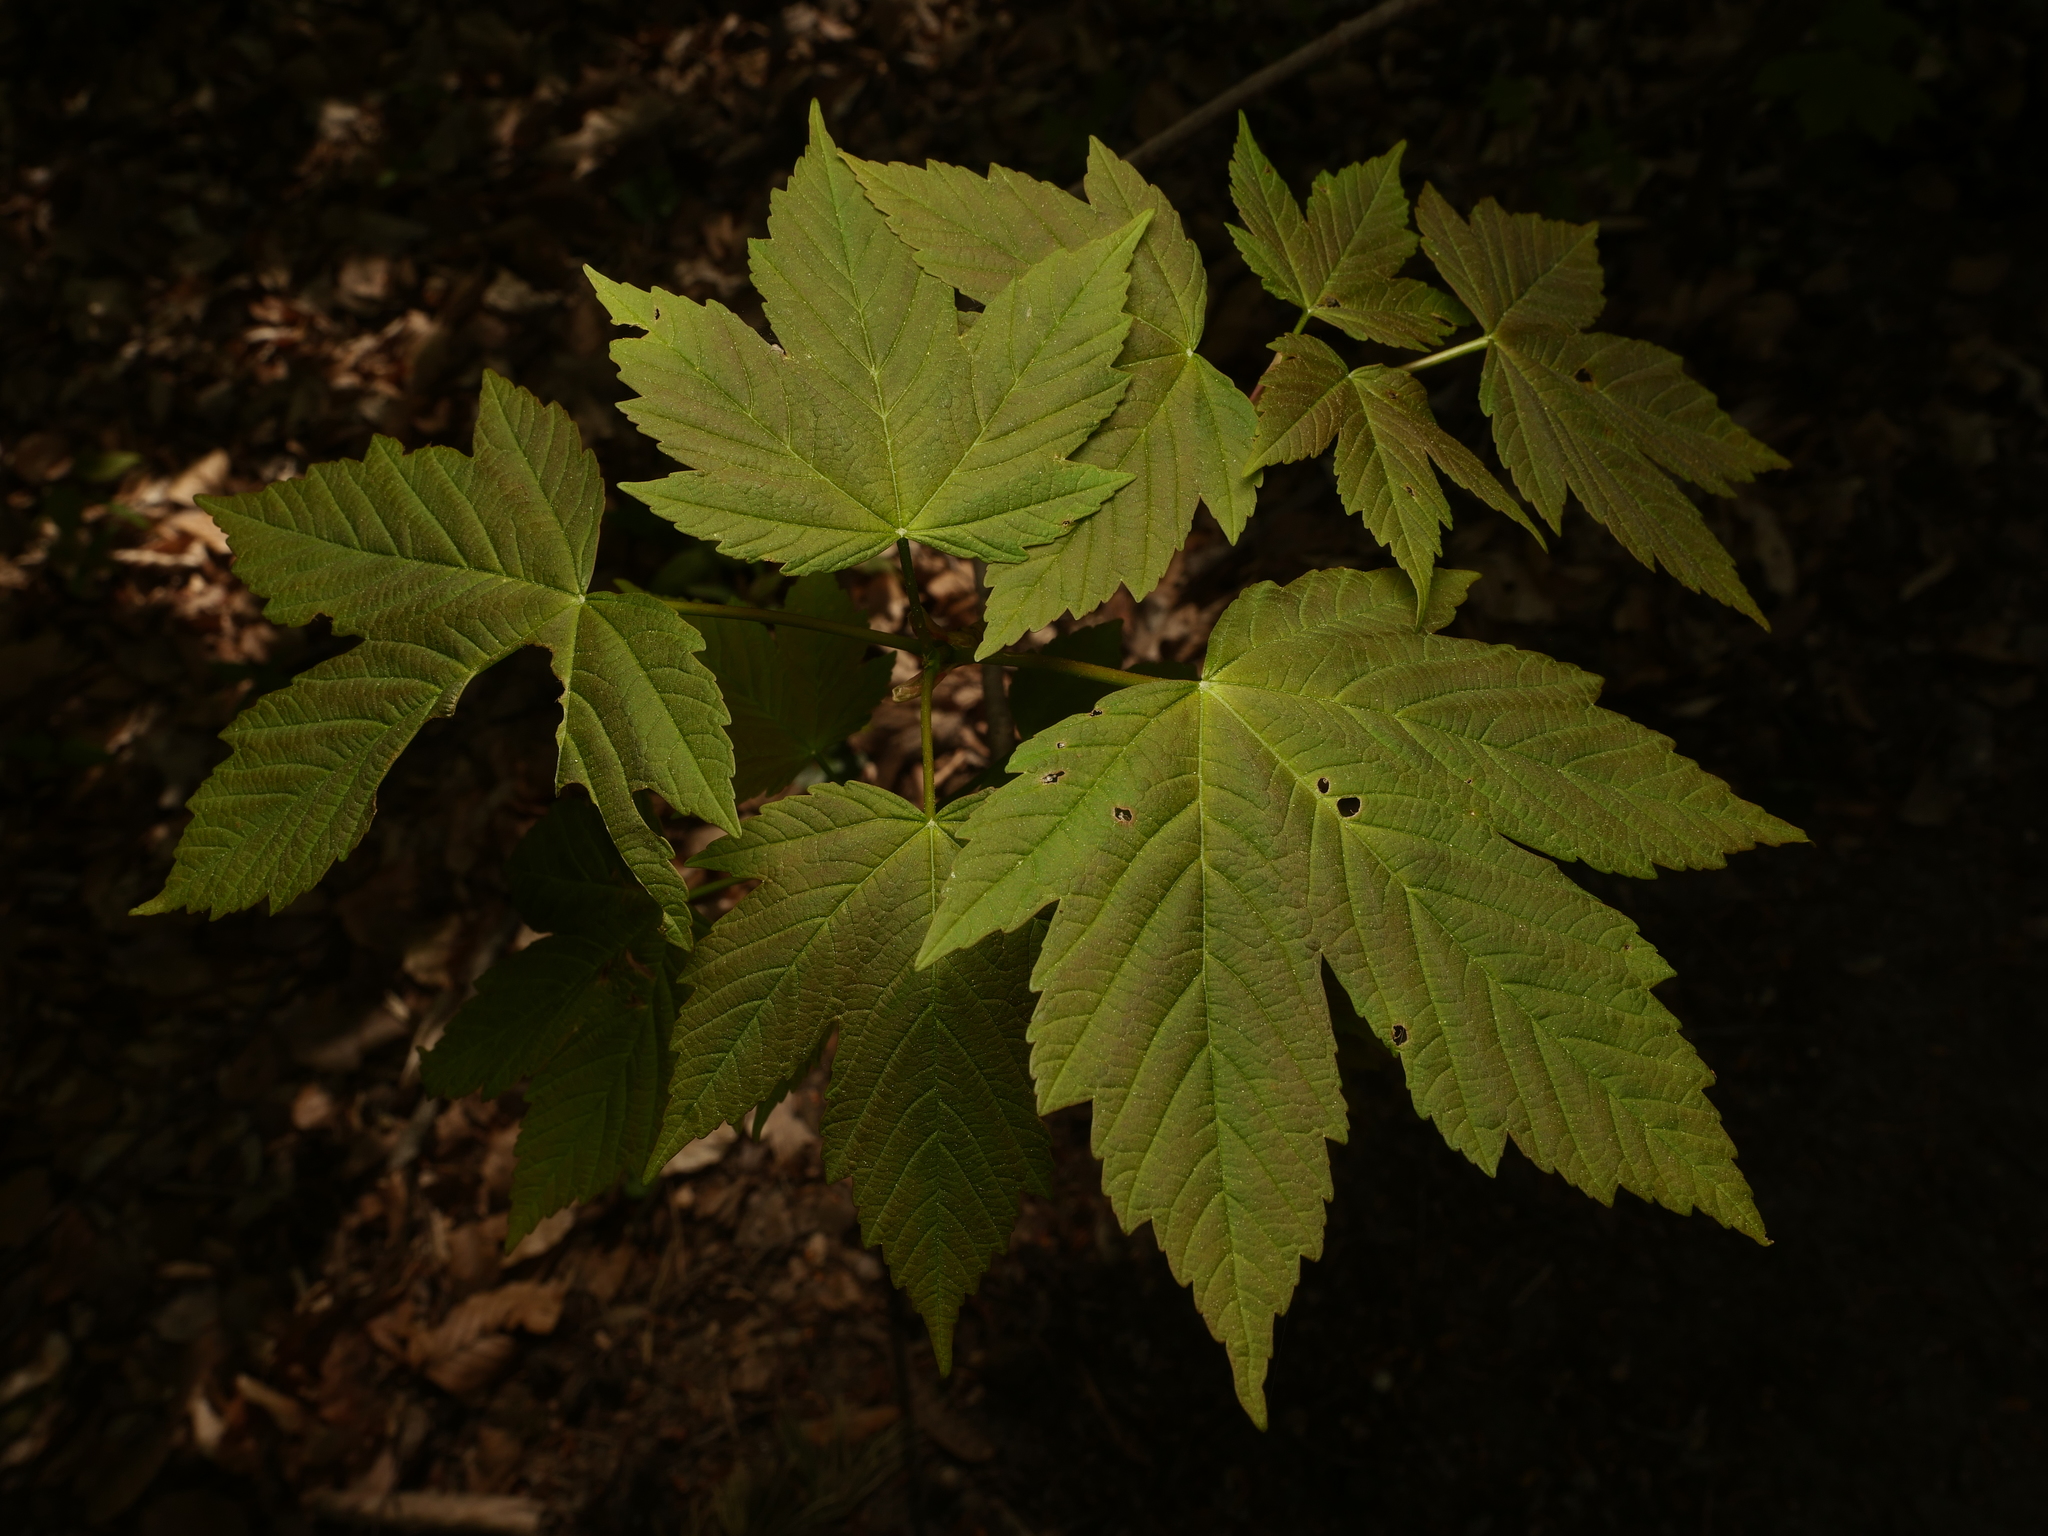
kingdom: Plantae
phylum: Tracheophyta
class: Magnoliopsida
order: Sapindales
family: Sapindaceae
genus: Acer
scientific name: Acer pseudoplatanus
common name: Sycamore
